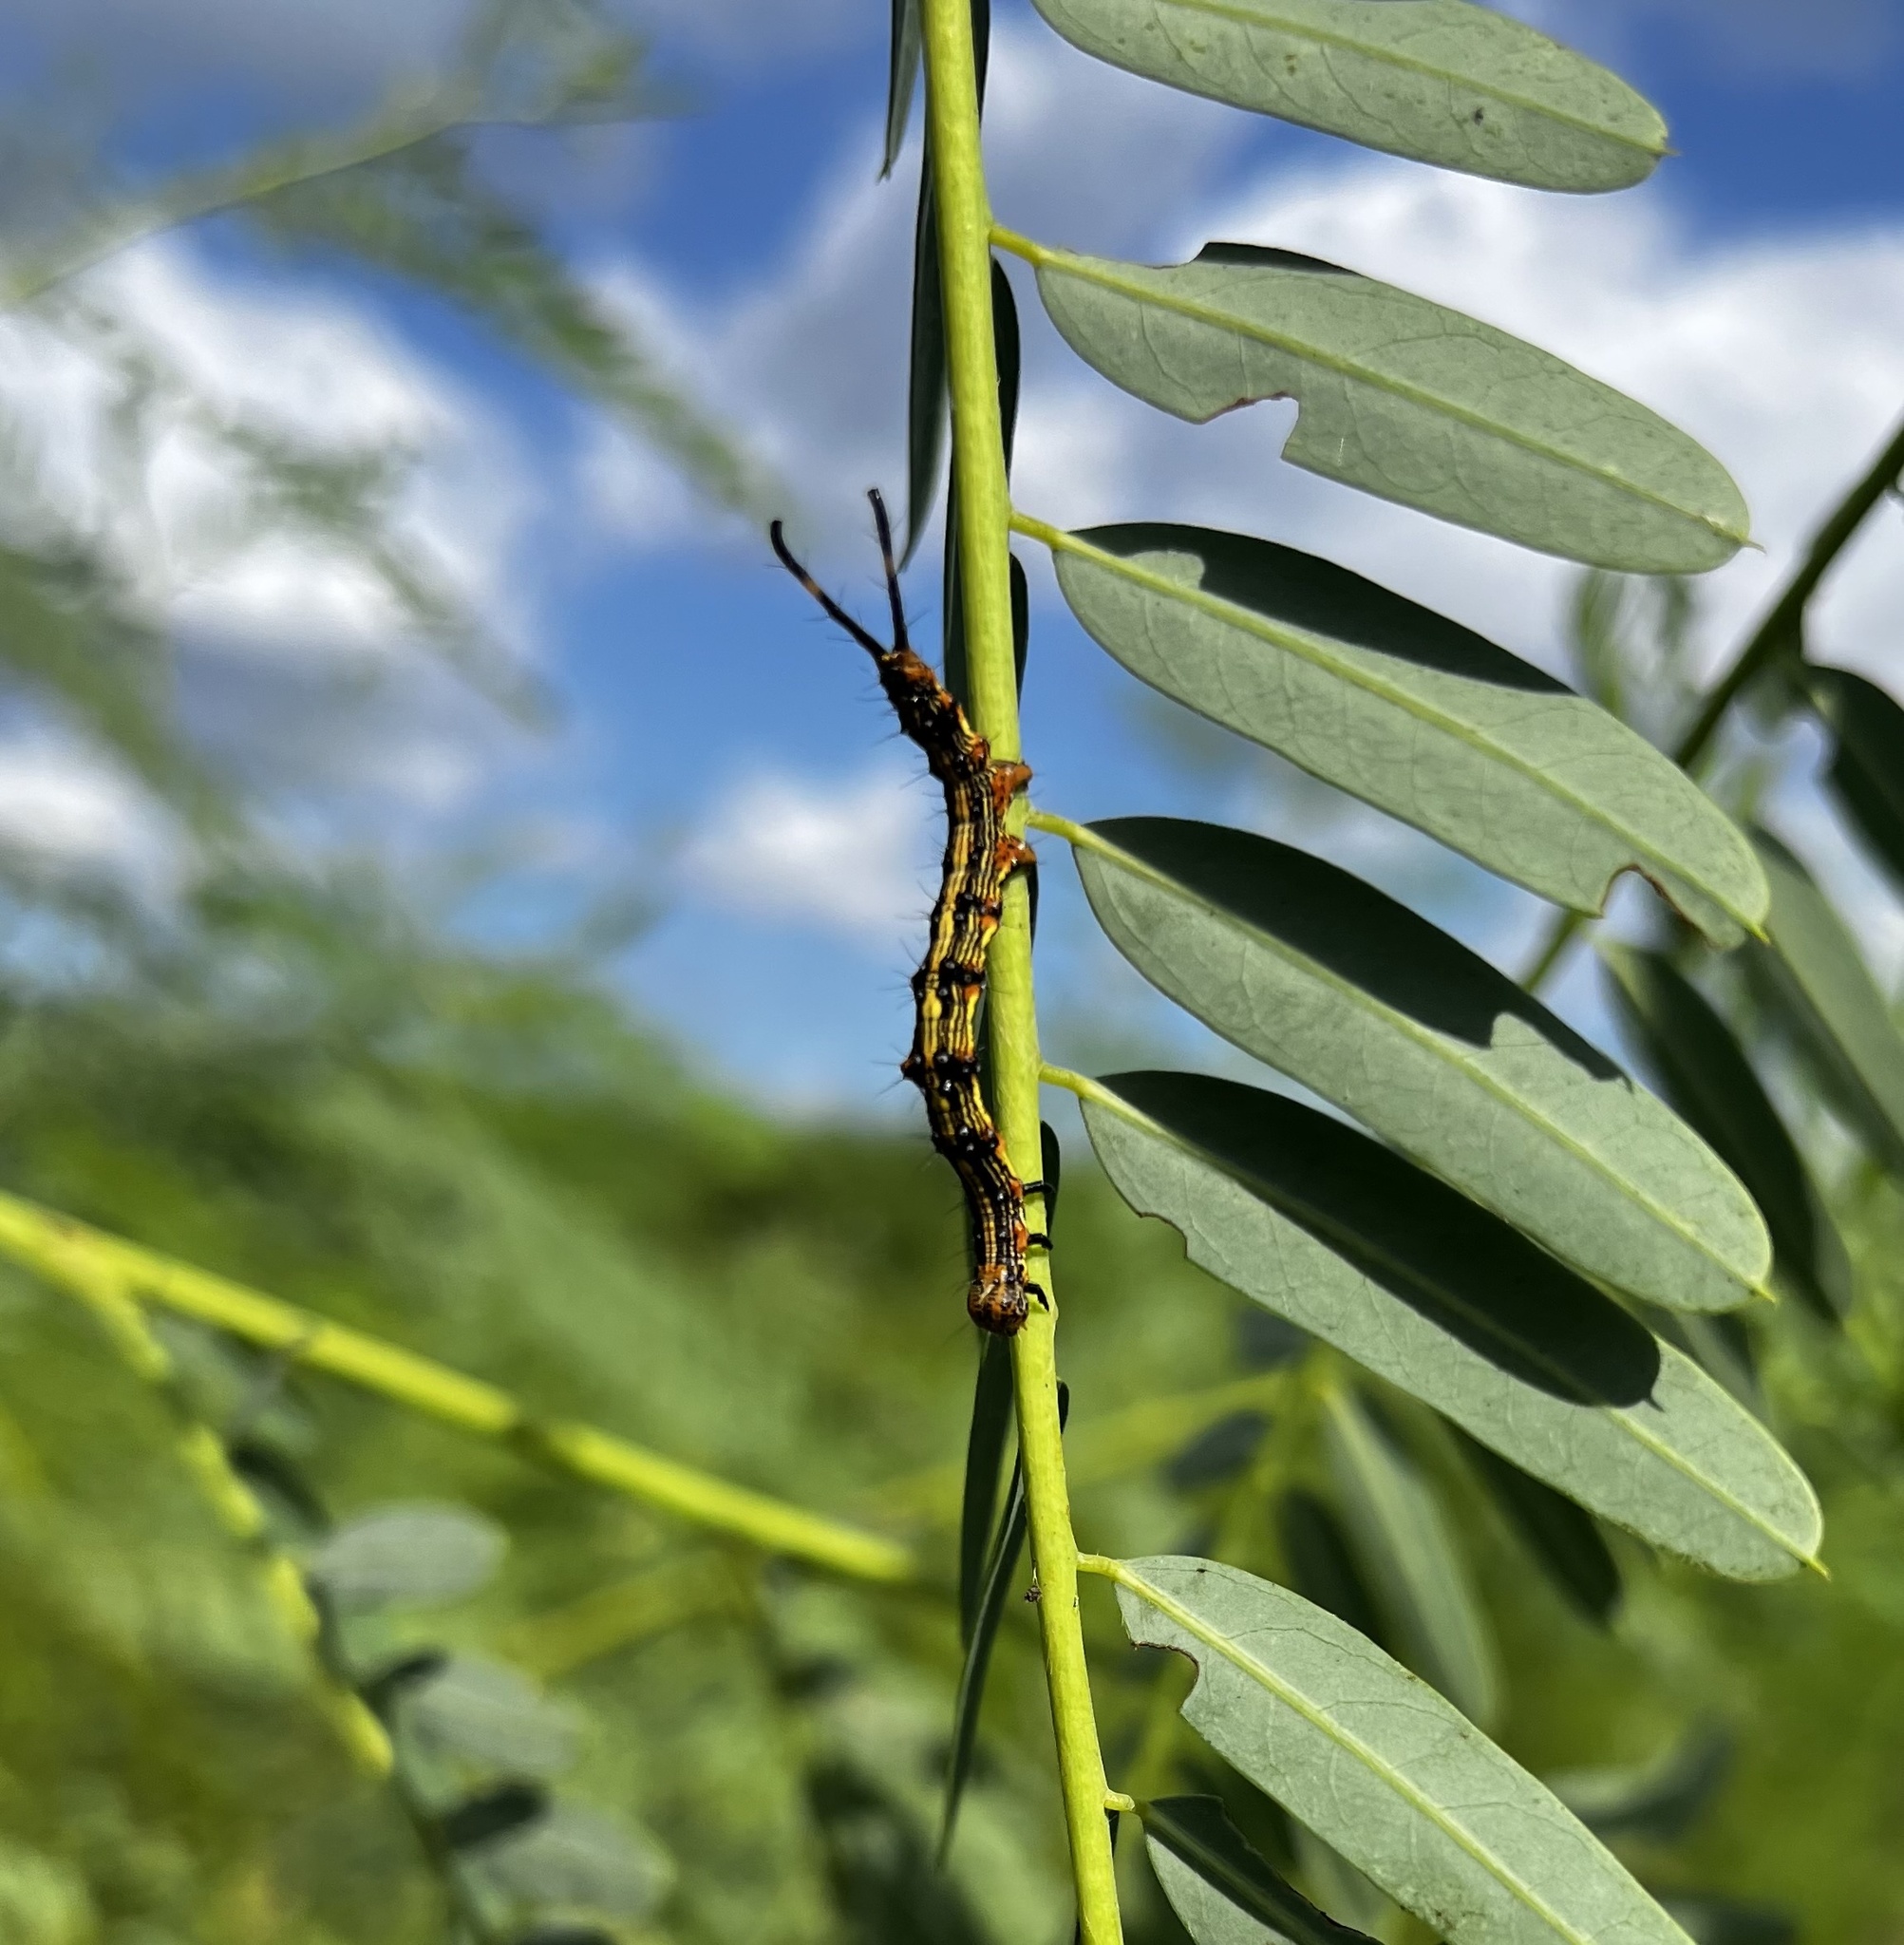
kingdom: Animalia
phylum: Arthropoda
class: Insecta
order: Lepidoptera
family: Erebidae
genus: Selenisa
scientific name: Selenisa sueroides
